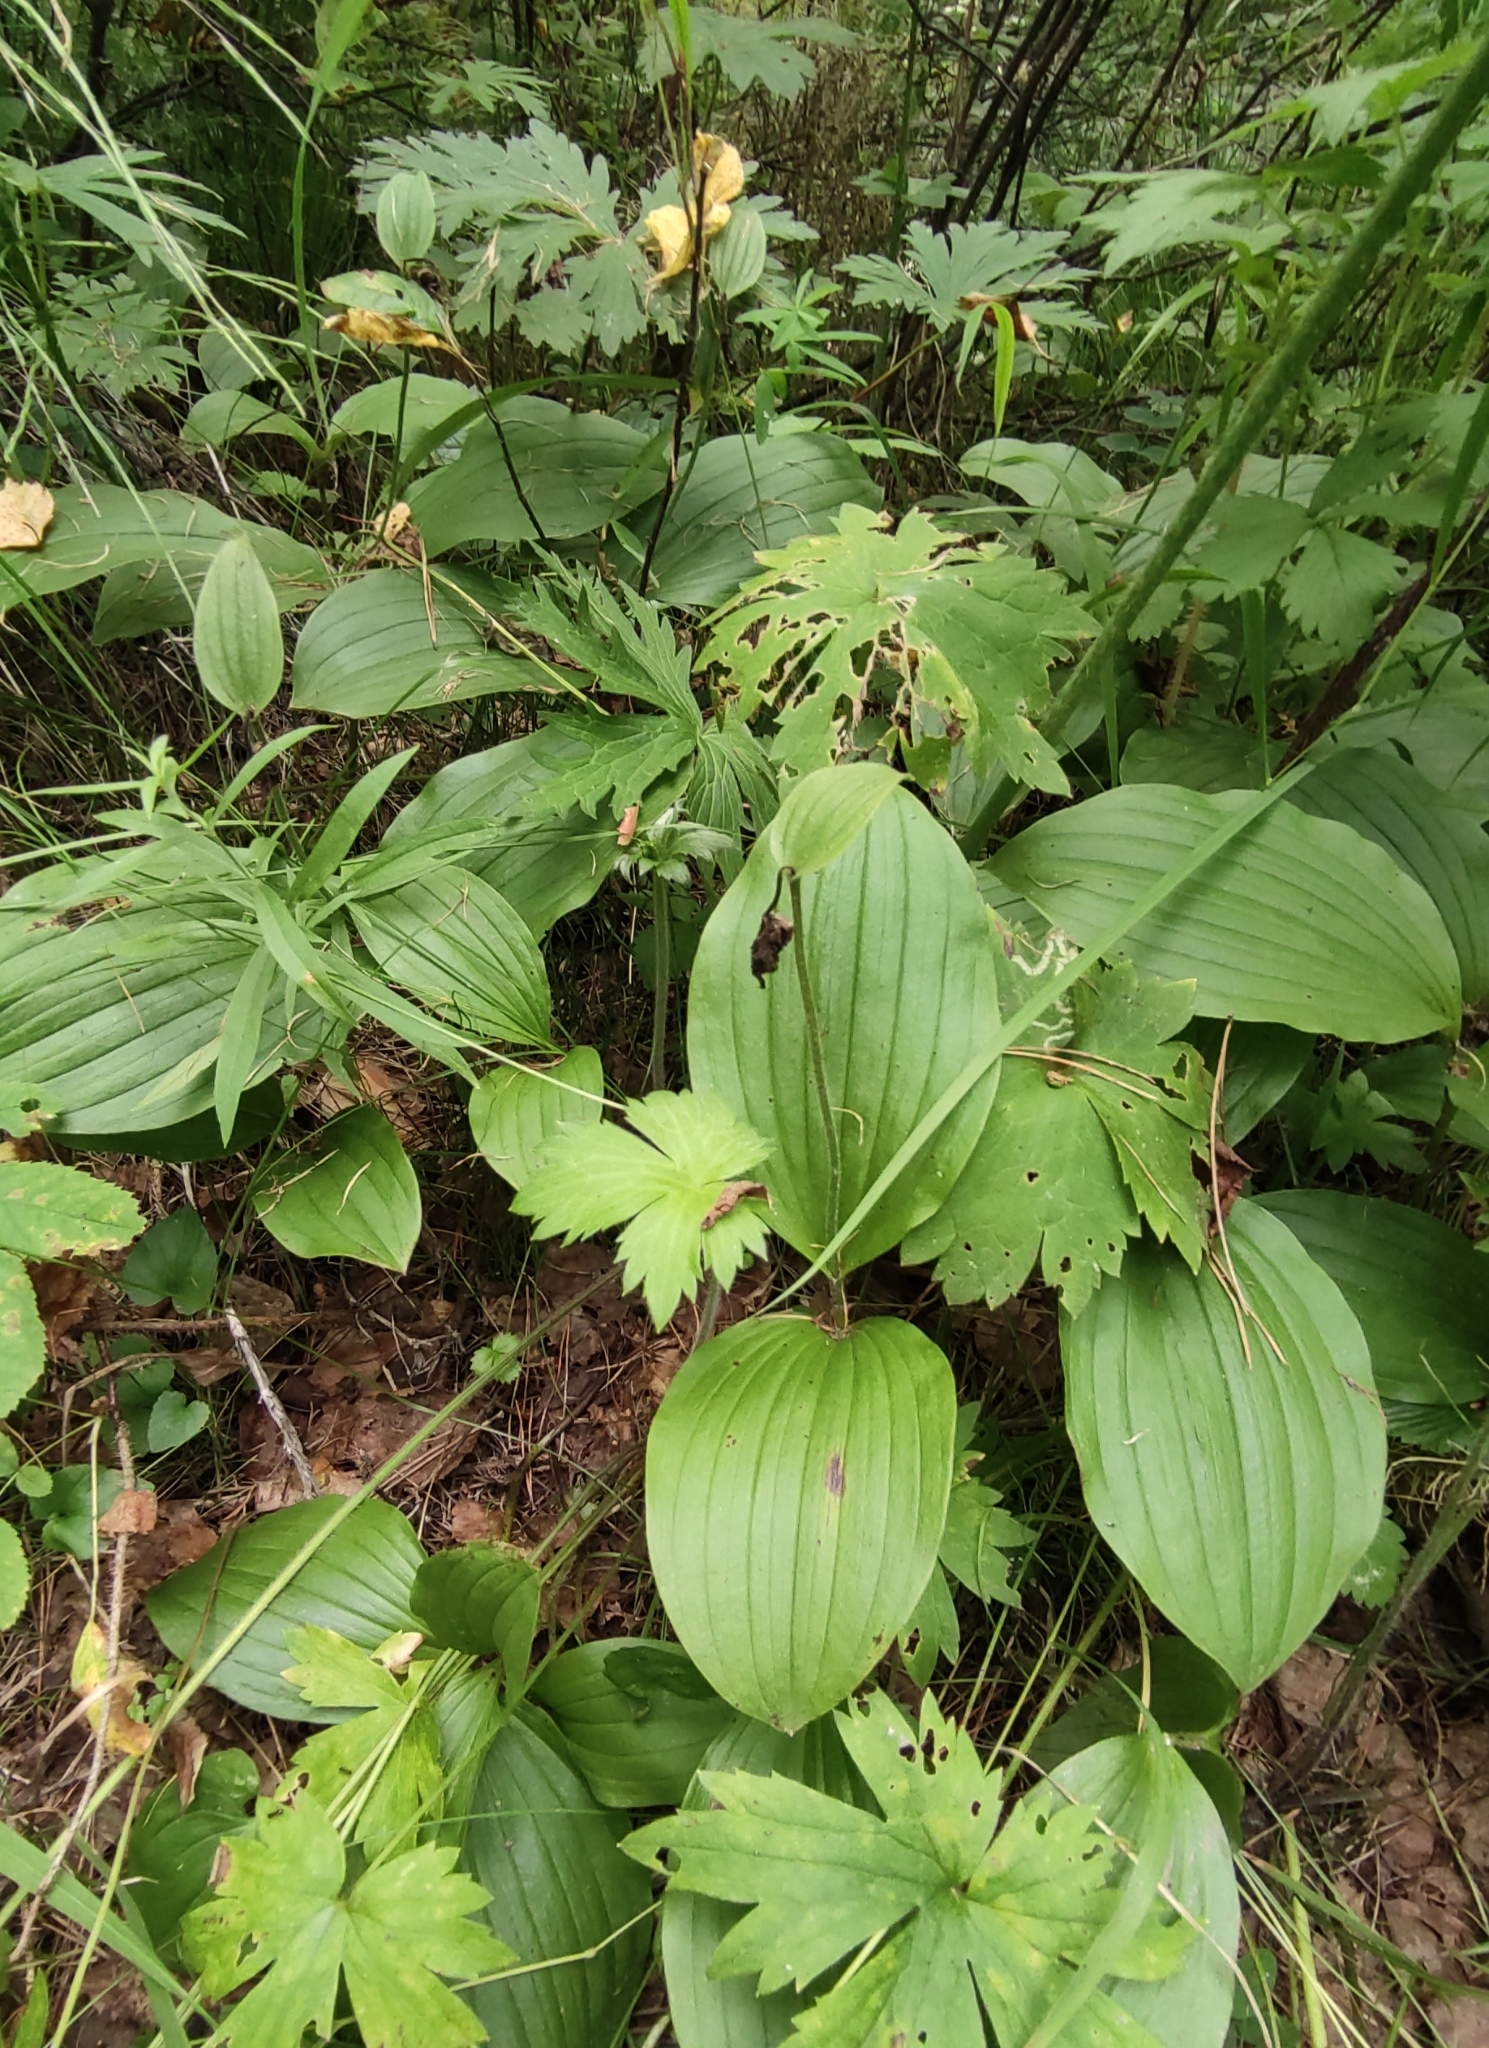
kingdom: Plantae
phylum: Tracheophyta
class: Liliopsida
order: Asparagales
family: Orchidaceae
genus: Cypripedium
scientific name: Cypripedium guttatum
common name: Pink lady slipper
